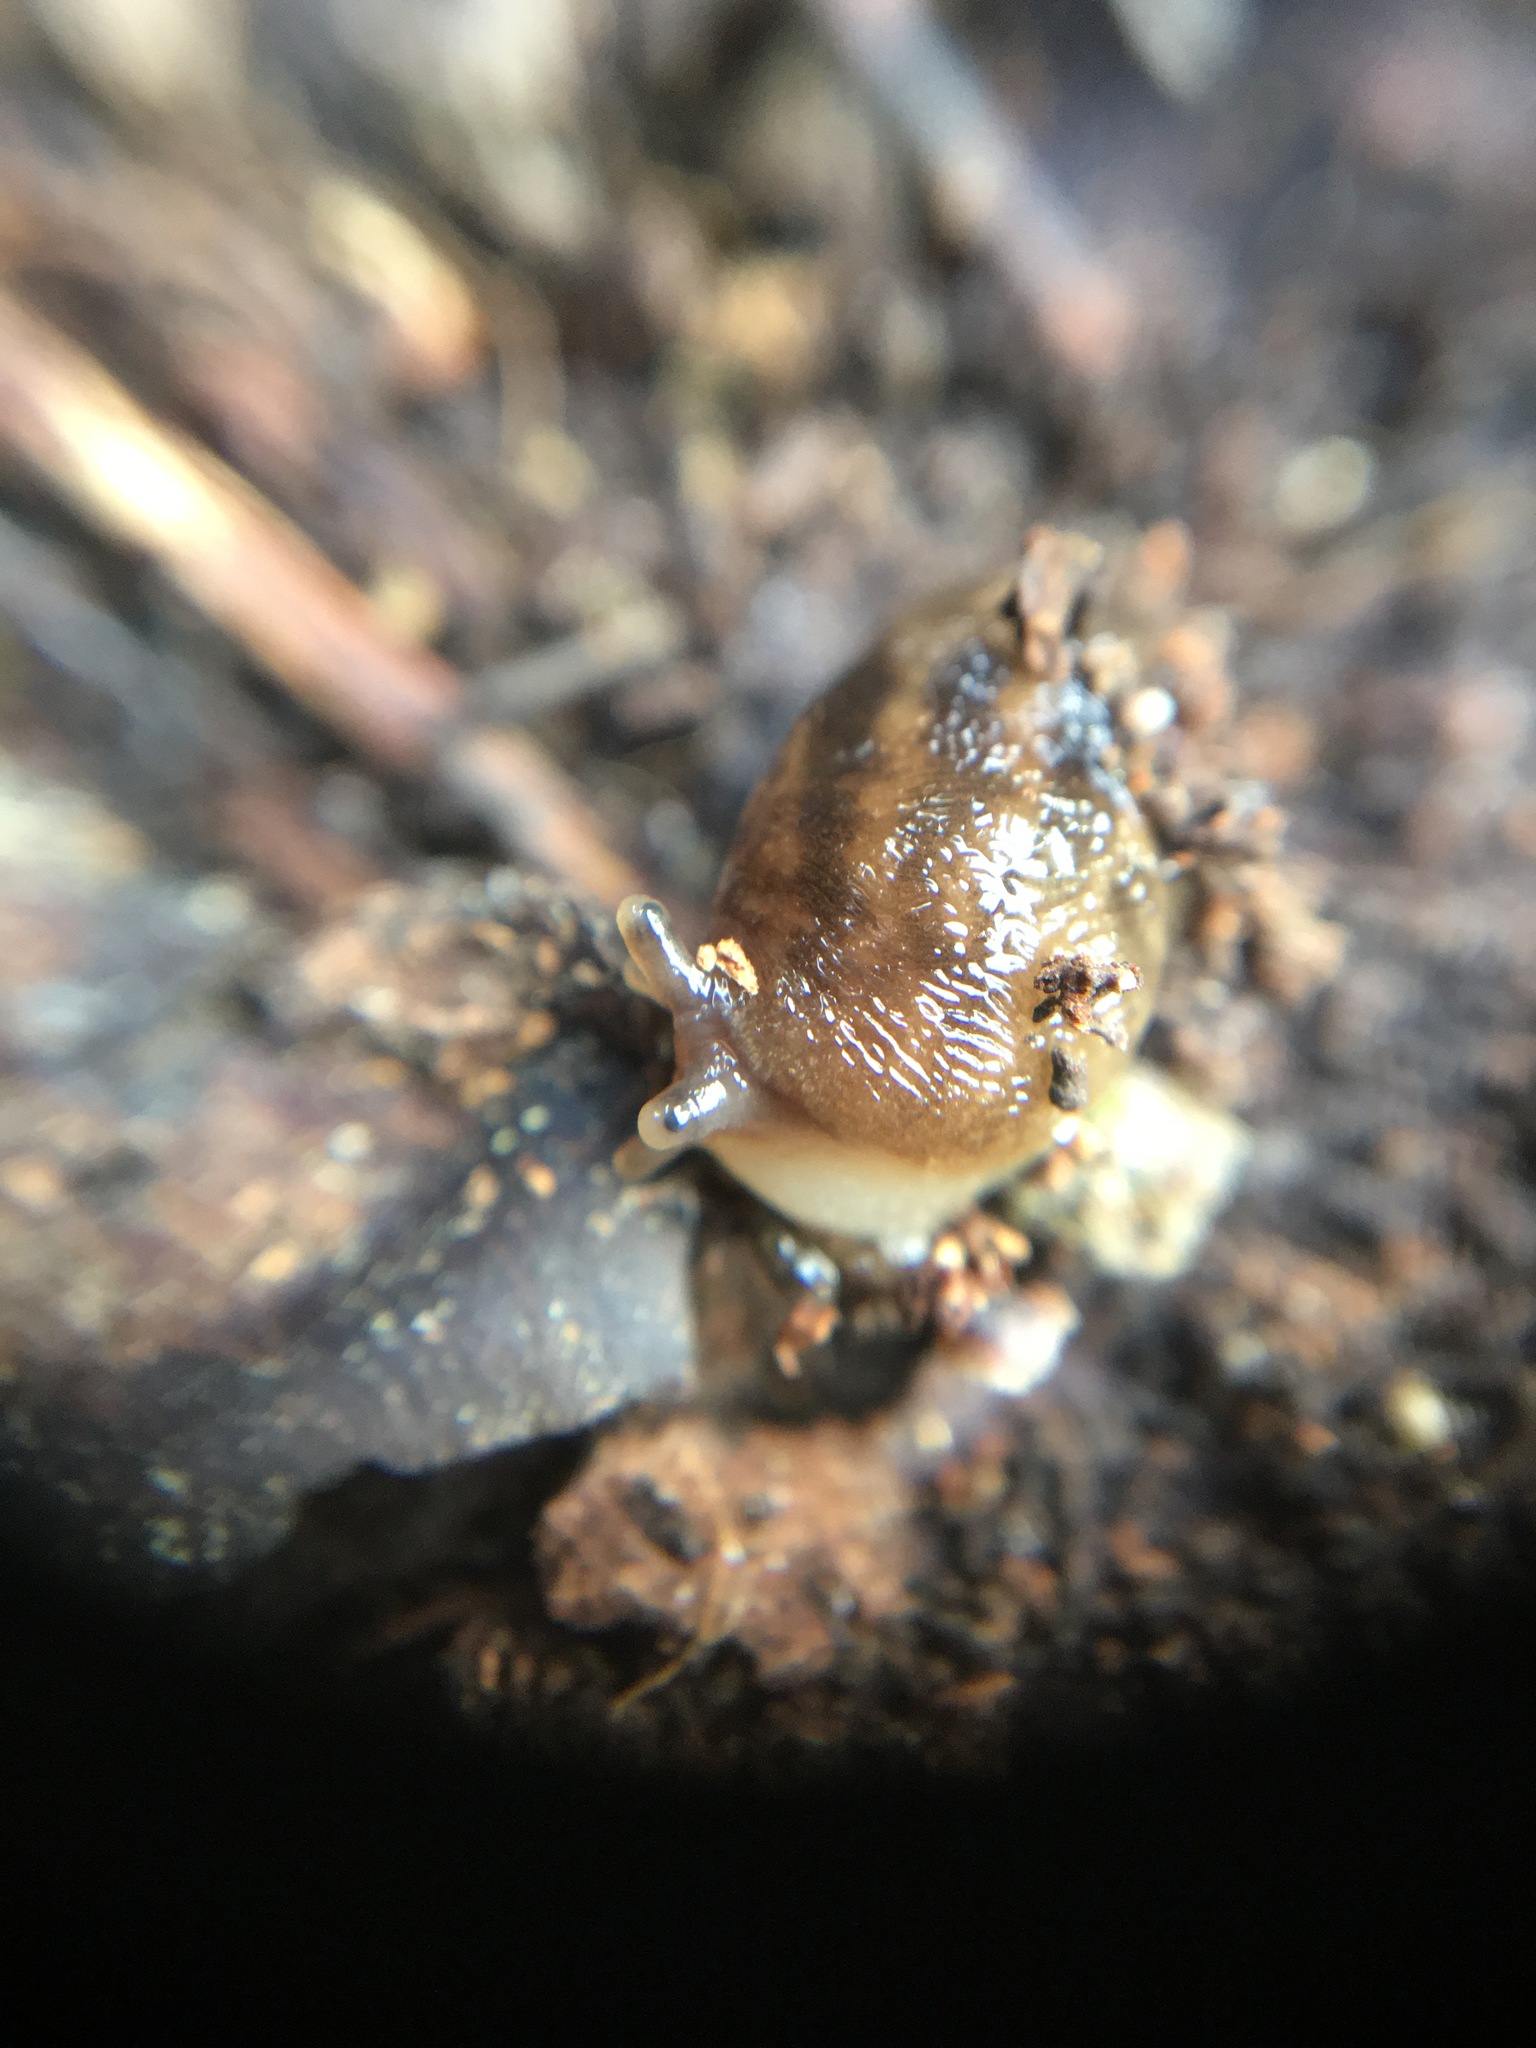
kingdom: Animalia
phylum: Mollusca
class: Gastropoda
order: Stylommatophora
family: Limacidae
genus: Ambigolimax
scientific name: Ambigolimax
